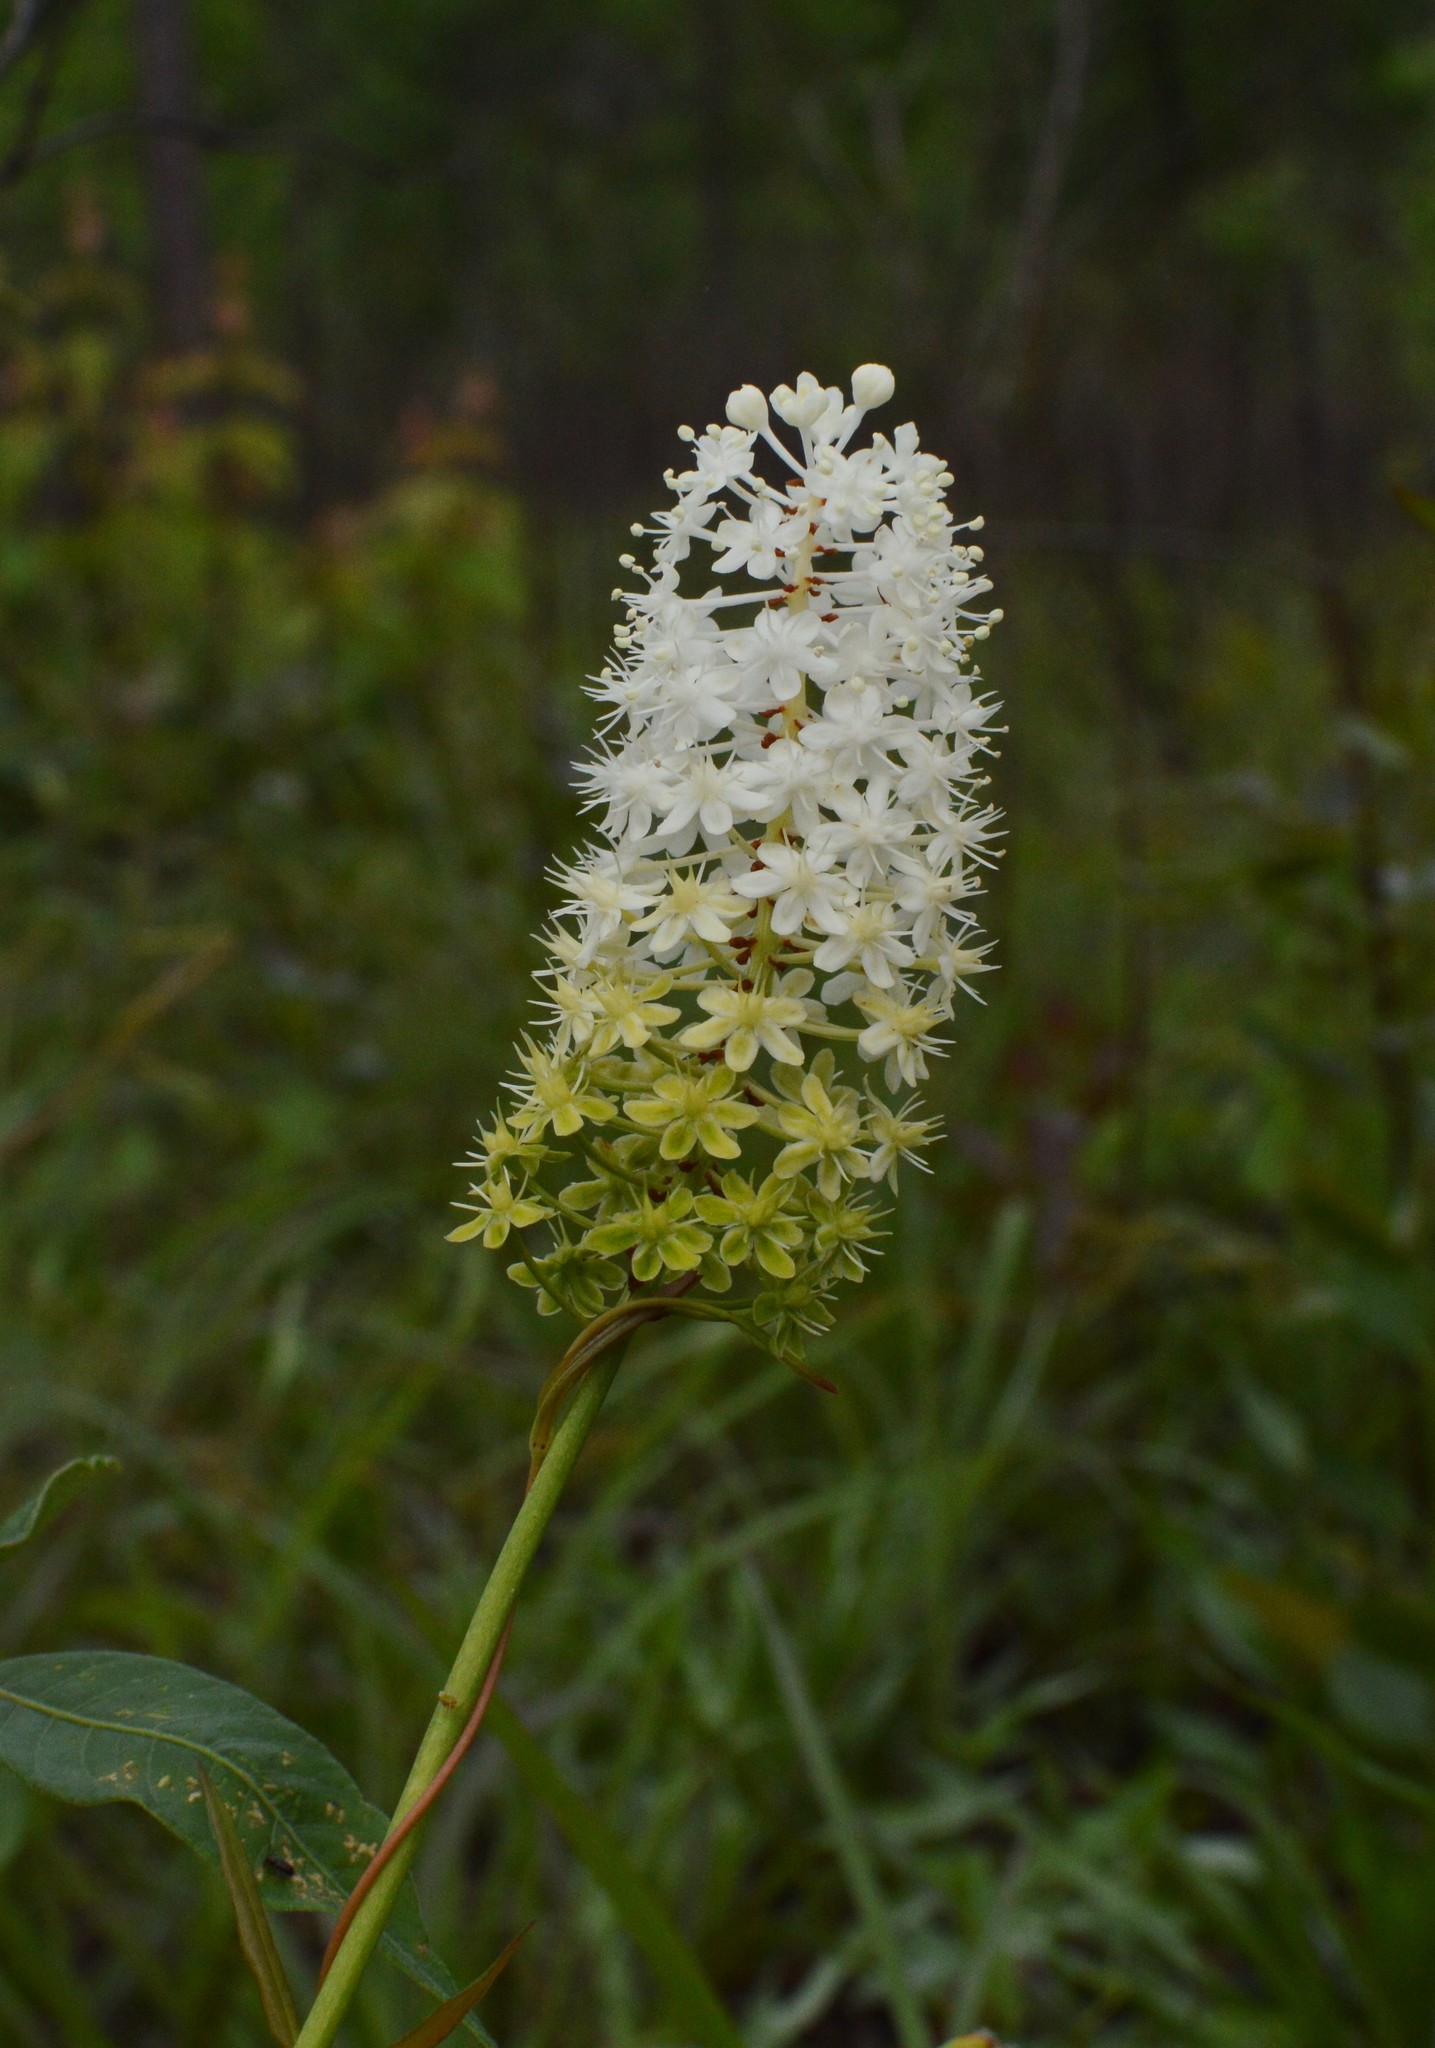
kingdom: Plantae
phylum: Tracheophyta
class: Liliopsida
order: Liliales
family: Melanthiaceae
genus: Amianthium
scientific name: Amianthium muscitoxicum
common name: Fly-poison
